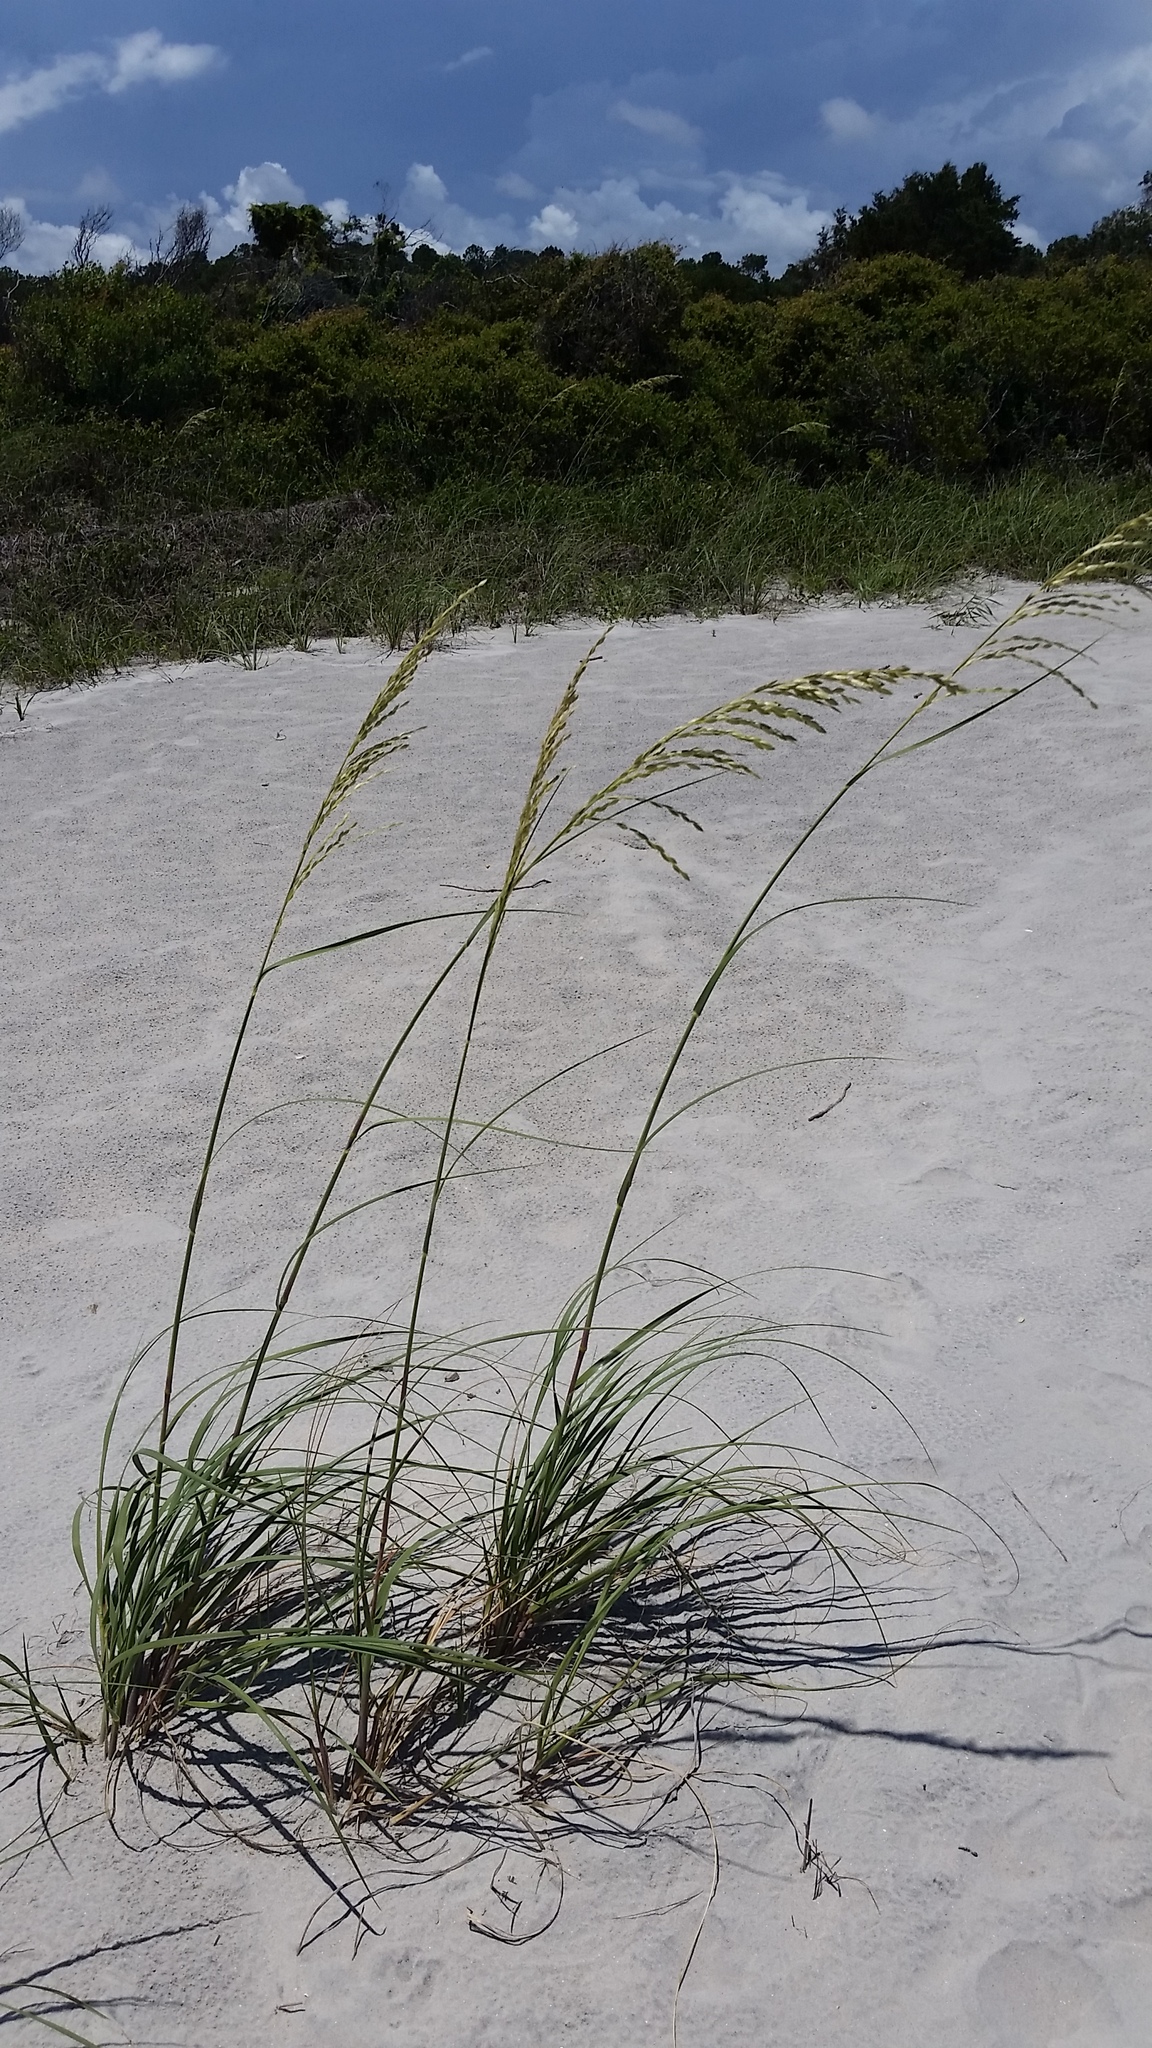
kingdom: Plantae
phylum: Tracheophyta
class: Liliopsida
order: Poales
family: Poaceae
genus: Uniola
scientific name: Uniola paniculata
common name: Seaside-oats
